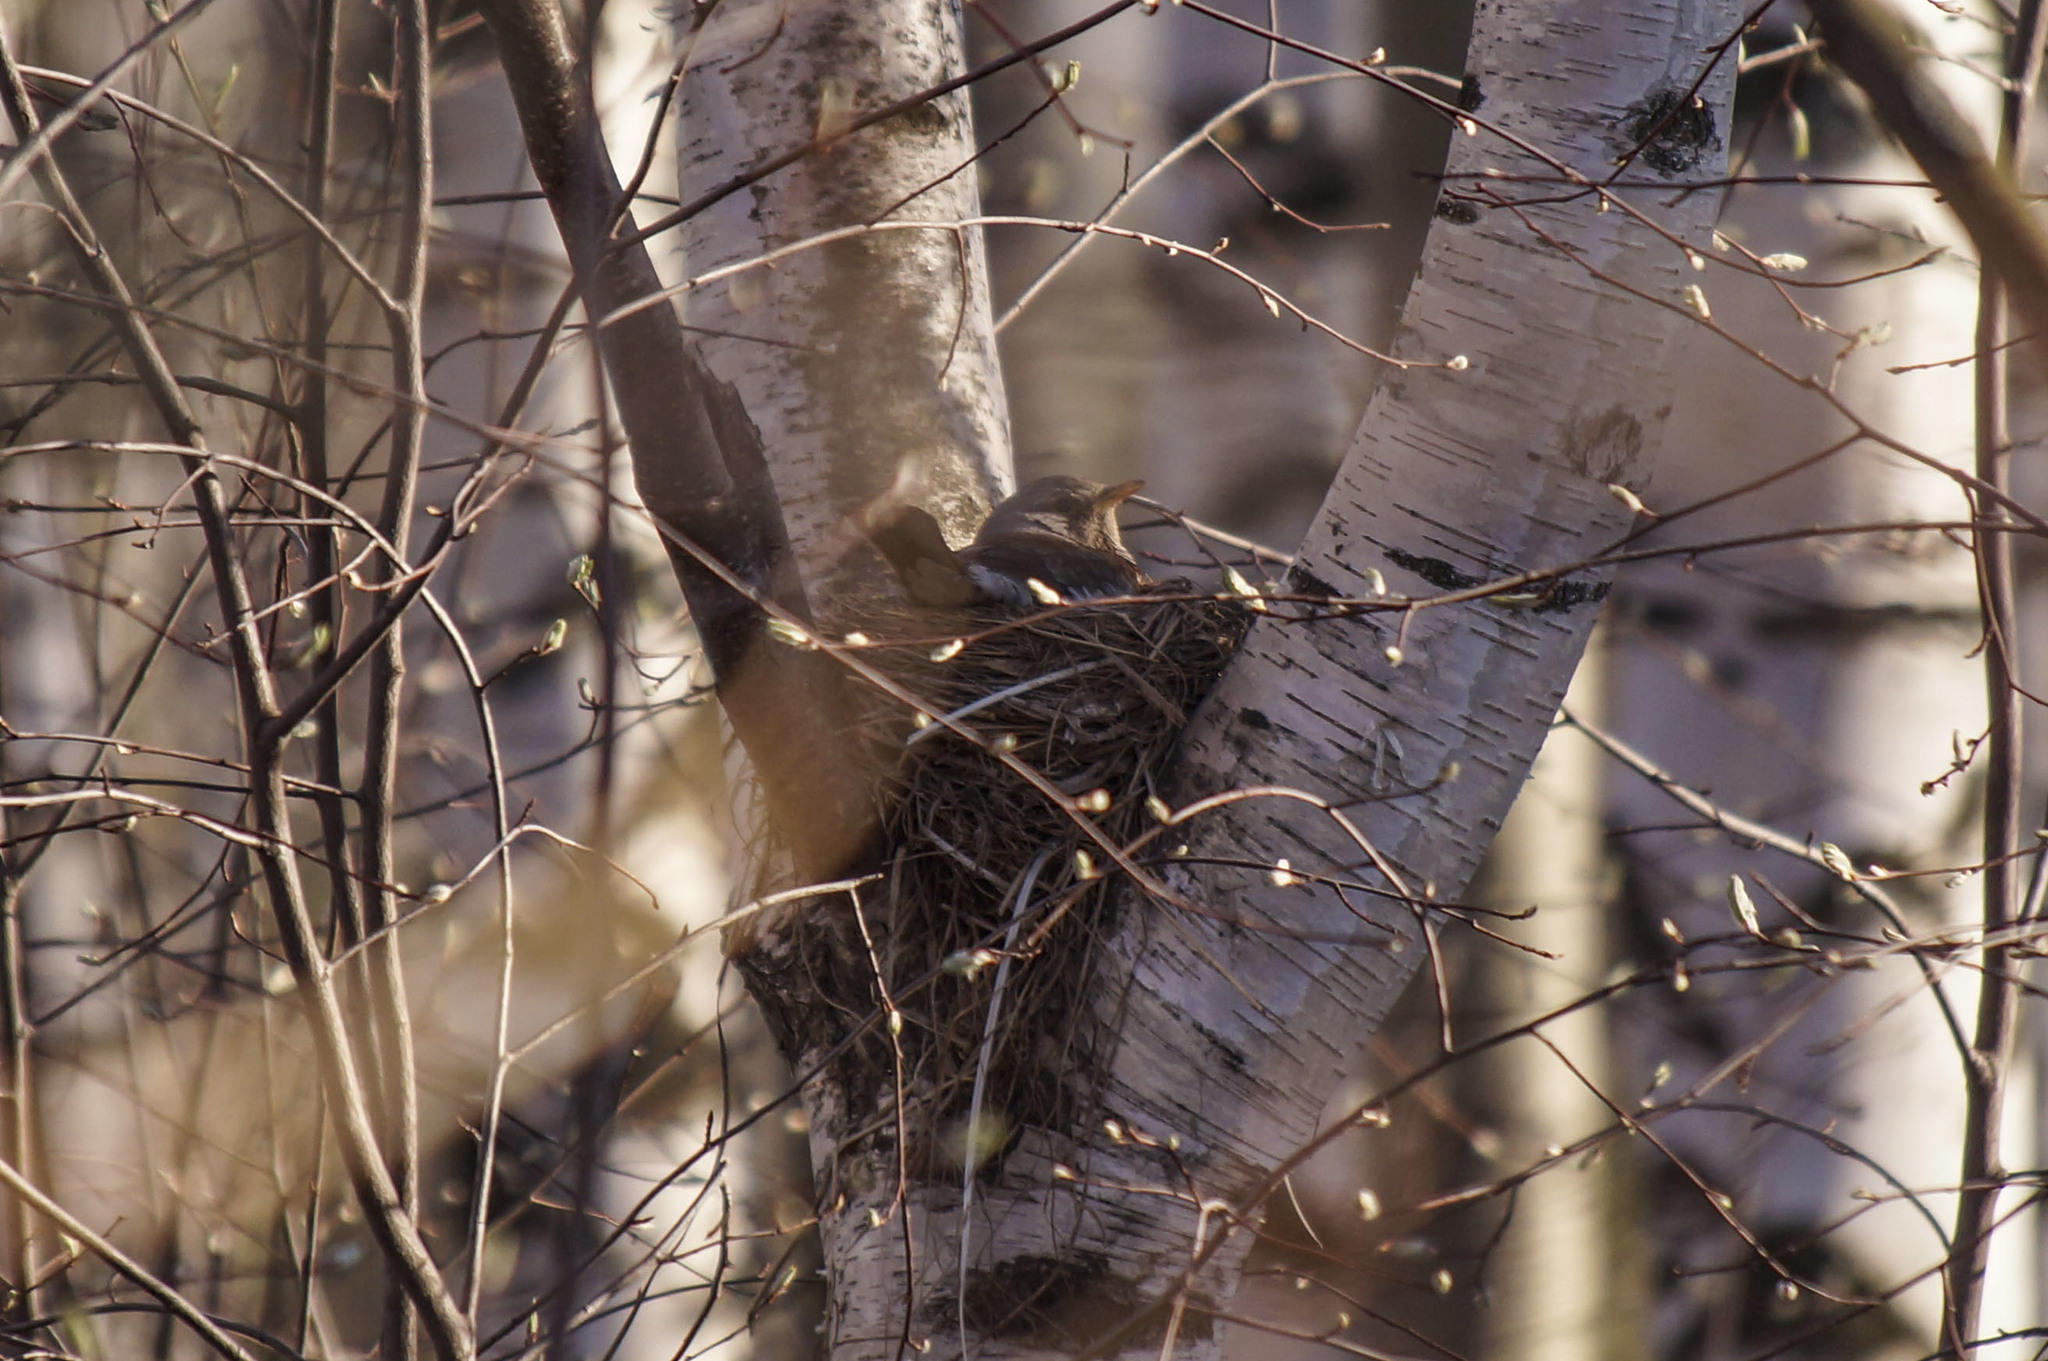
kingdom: Animalia
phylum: Chordata
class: Aves
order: Passeriformes
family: Turdidae
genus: Turdus
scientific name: Turdus pilaris
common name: Fieldfare
